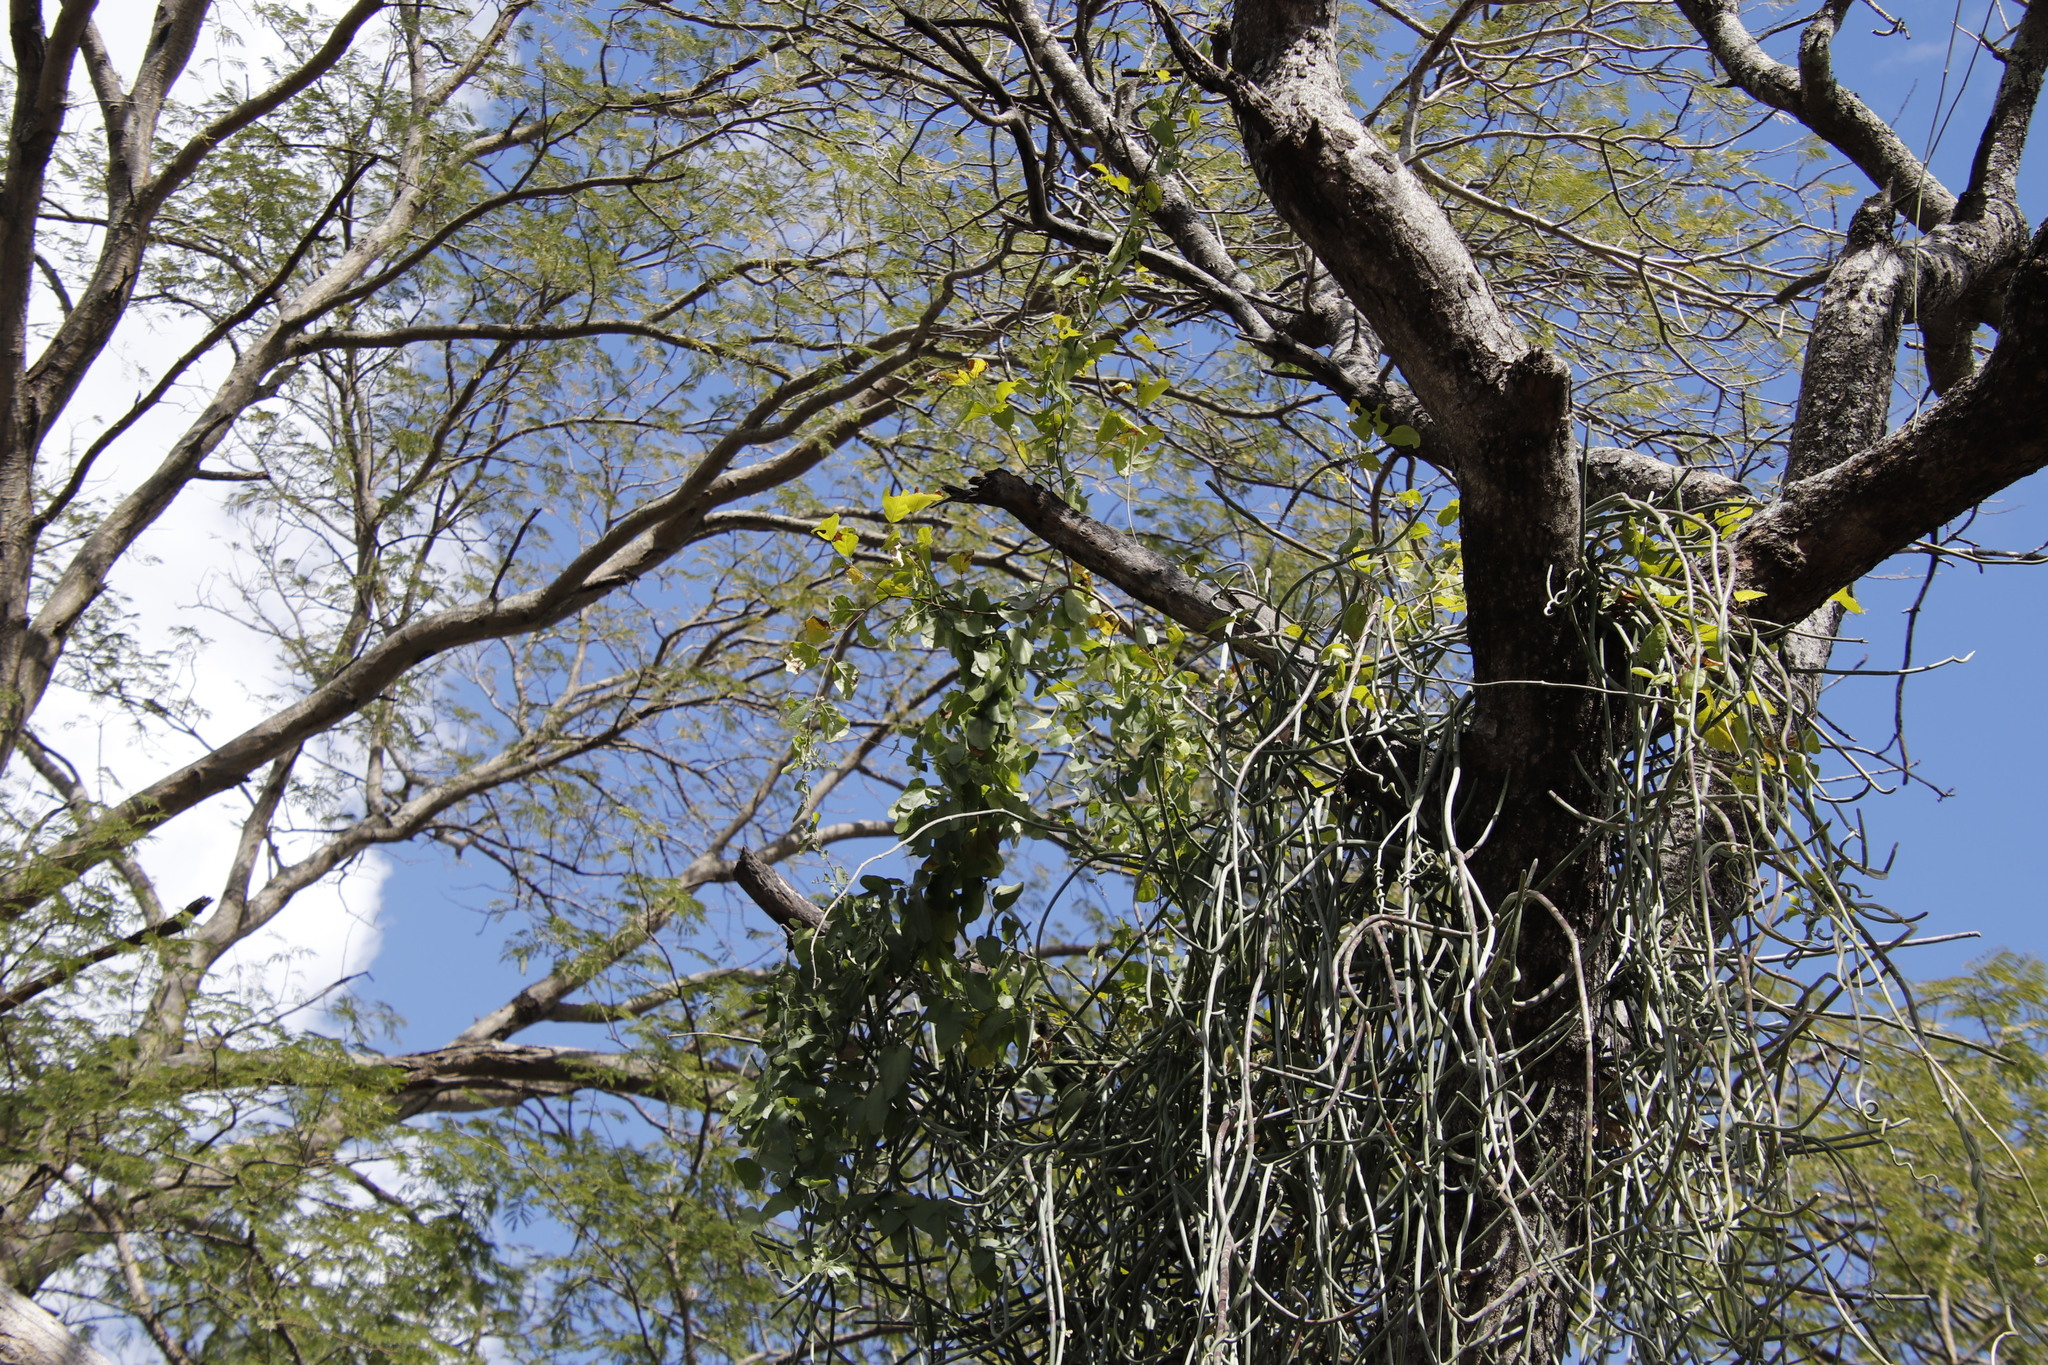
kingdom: Plantae
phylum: Tracheophyta
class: Magnoliopsida
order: Gentianales
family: Apocynaceae
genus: Cynanchum
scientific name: Cynanchum viminale
